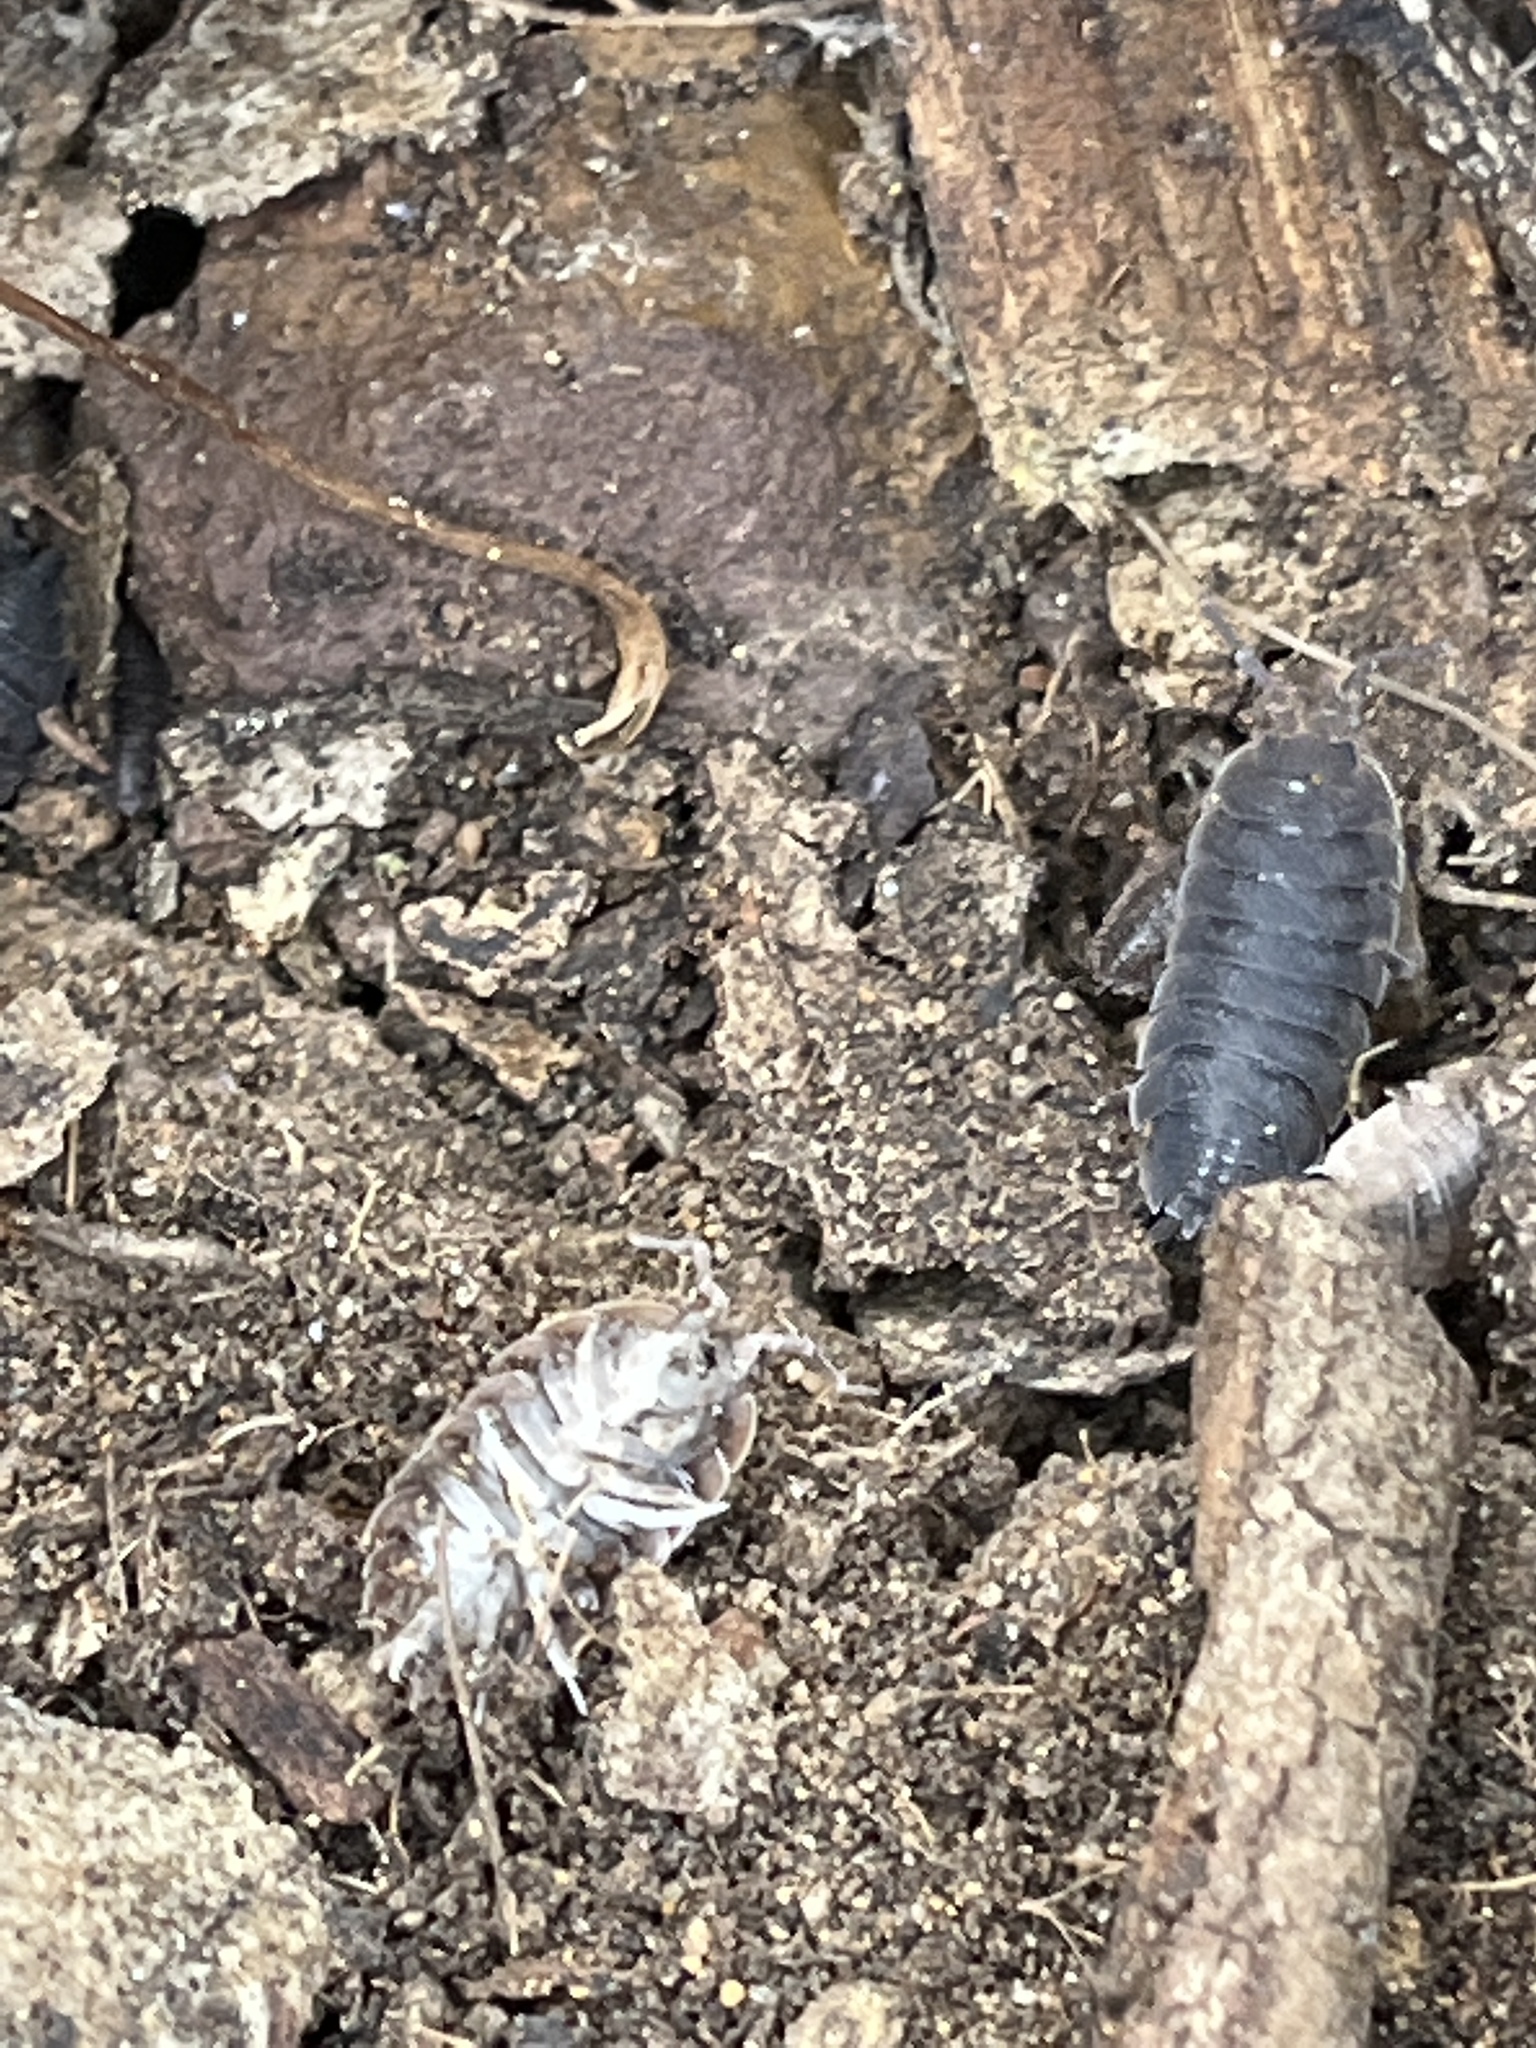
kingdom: Animalia
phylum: Arthropoda
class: Malacostraca
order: Isopoda
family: Porcellionidae
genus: Porcellio
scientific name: Porcellio scaber
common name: Common rough woodlouse
